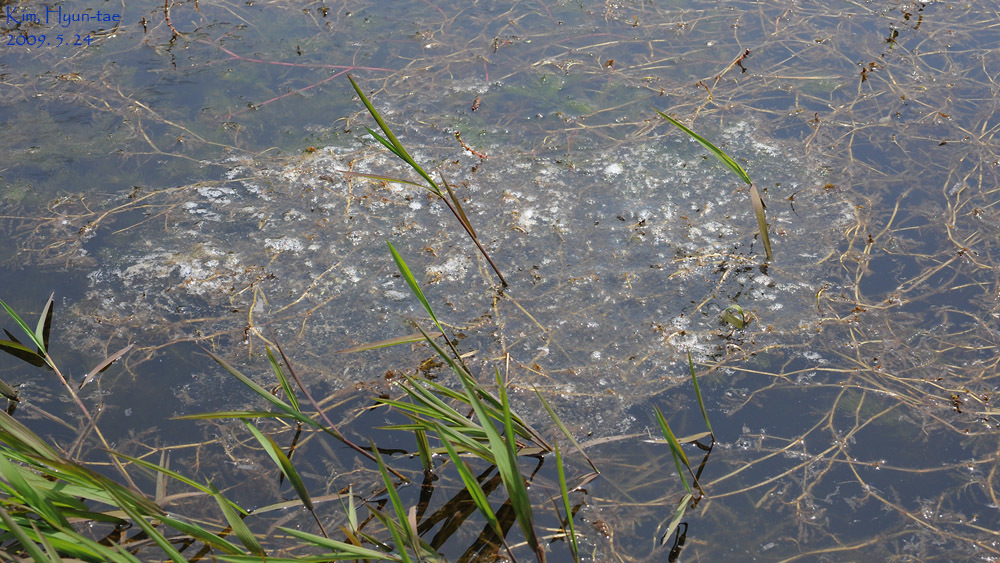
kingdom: Animalia
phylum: Chordata
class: Amphibia
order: Anura
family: Ranidae
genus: Lithobates
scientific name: Lithobates catesbeianus
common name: American bullfrog
